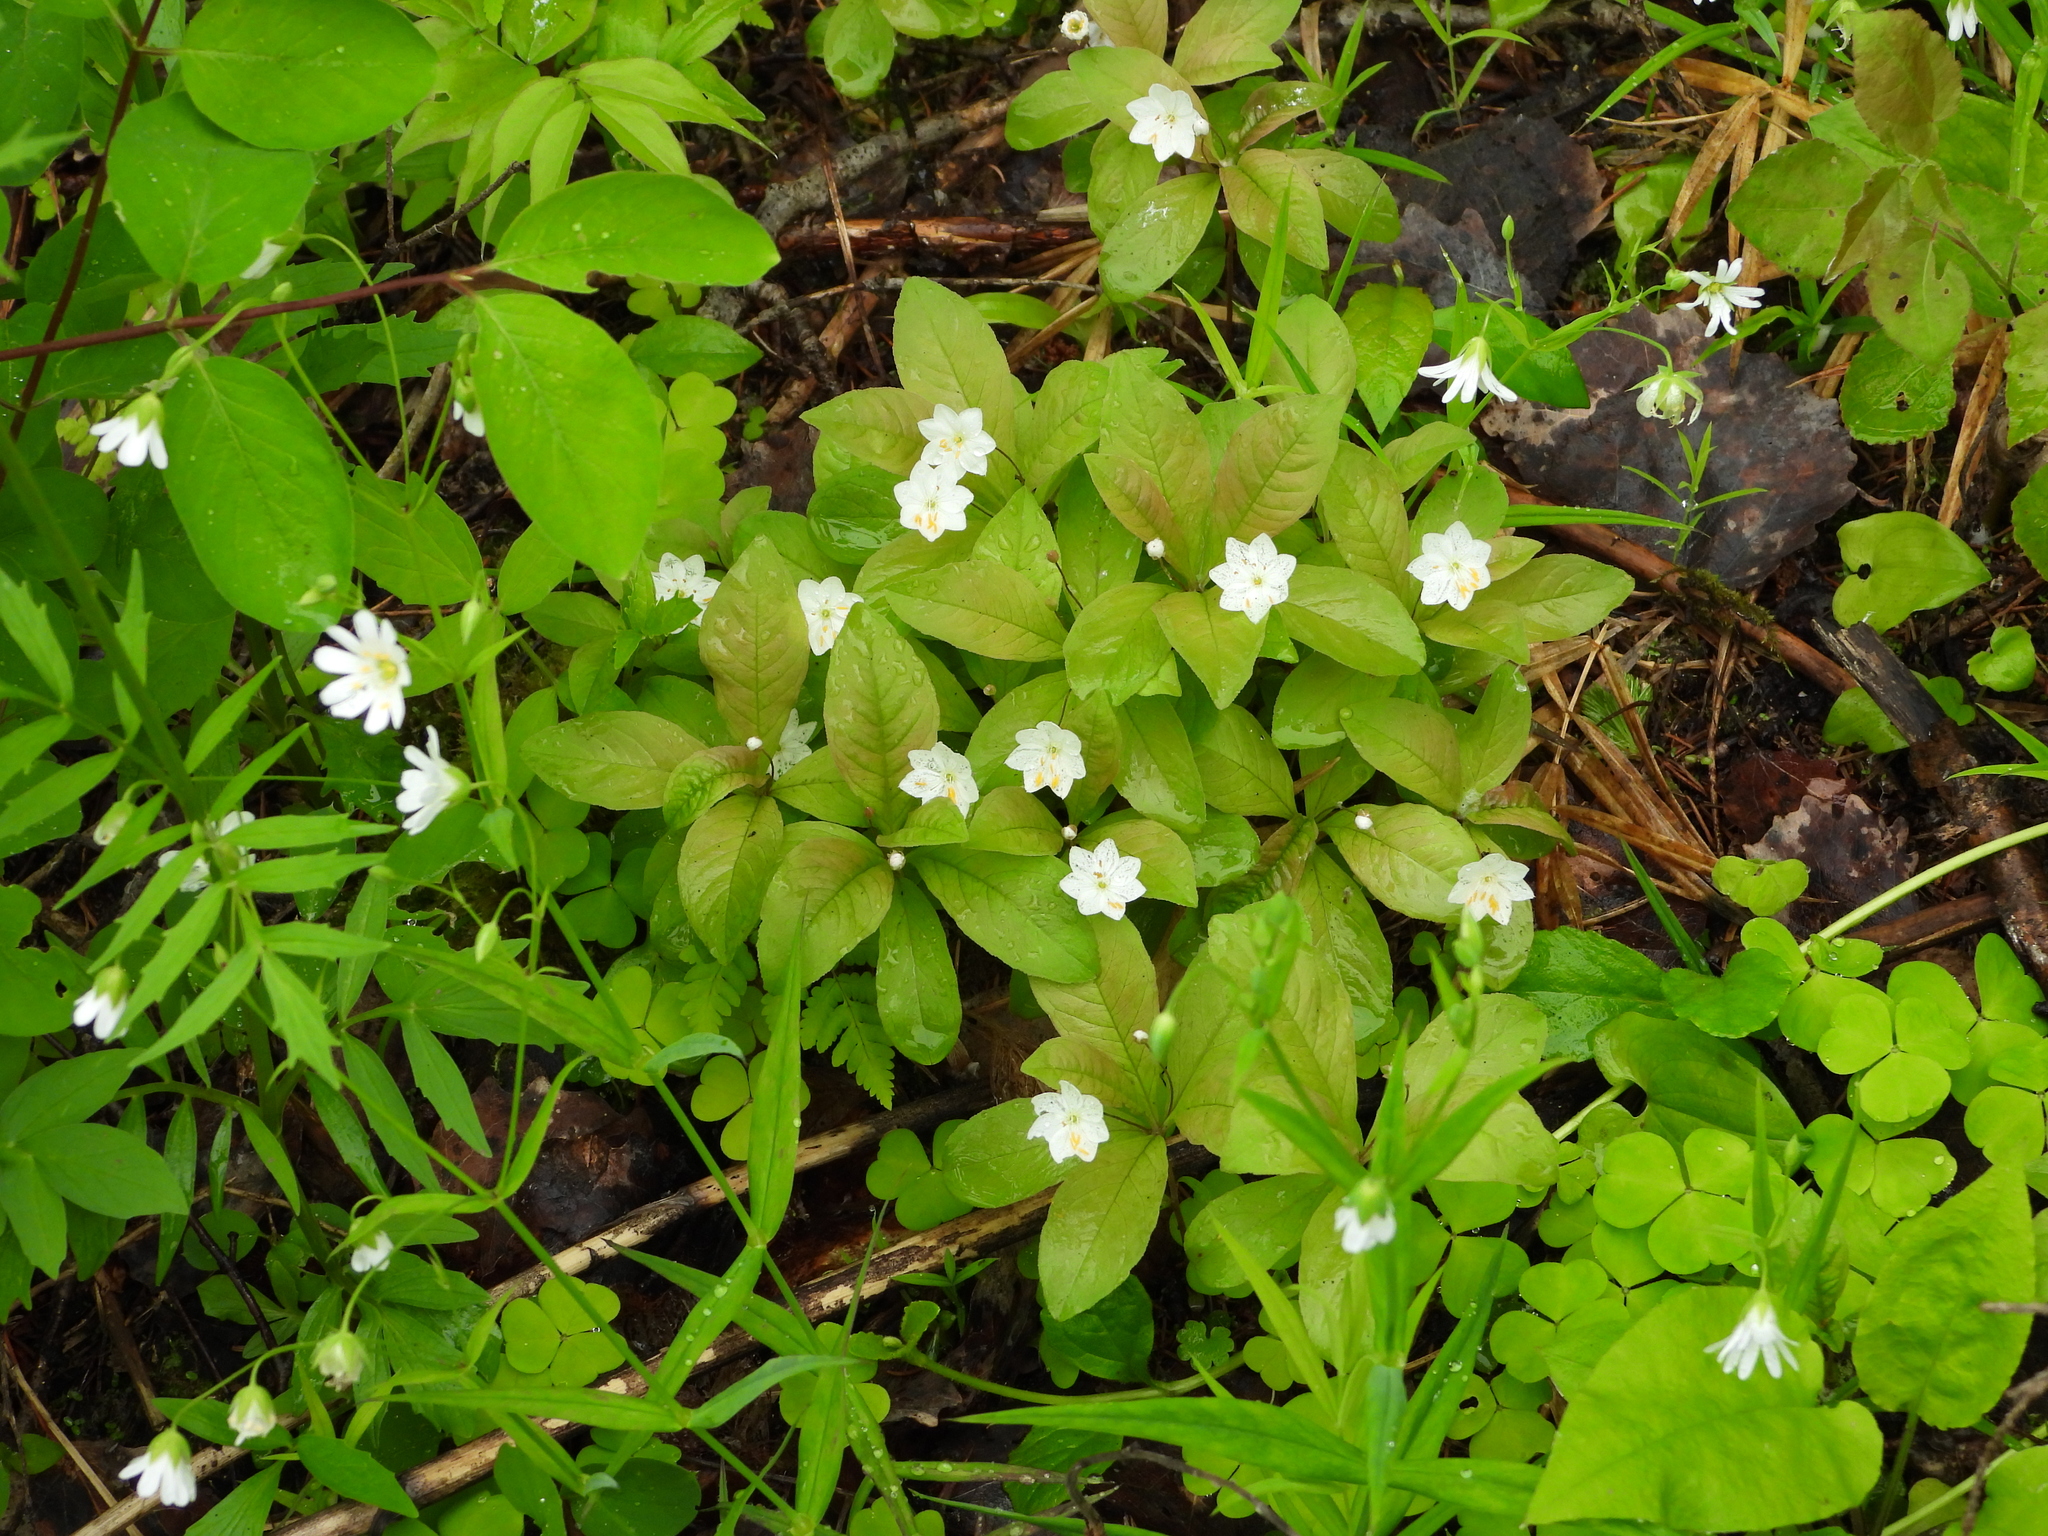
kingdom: Plantae
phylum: Tracheophyta
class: Magnoliopsida
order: Ericales
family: Primulaceae
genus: Lysimachia
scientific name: Lysimachia europaea
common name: Arctic starflower
